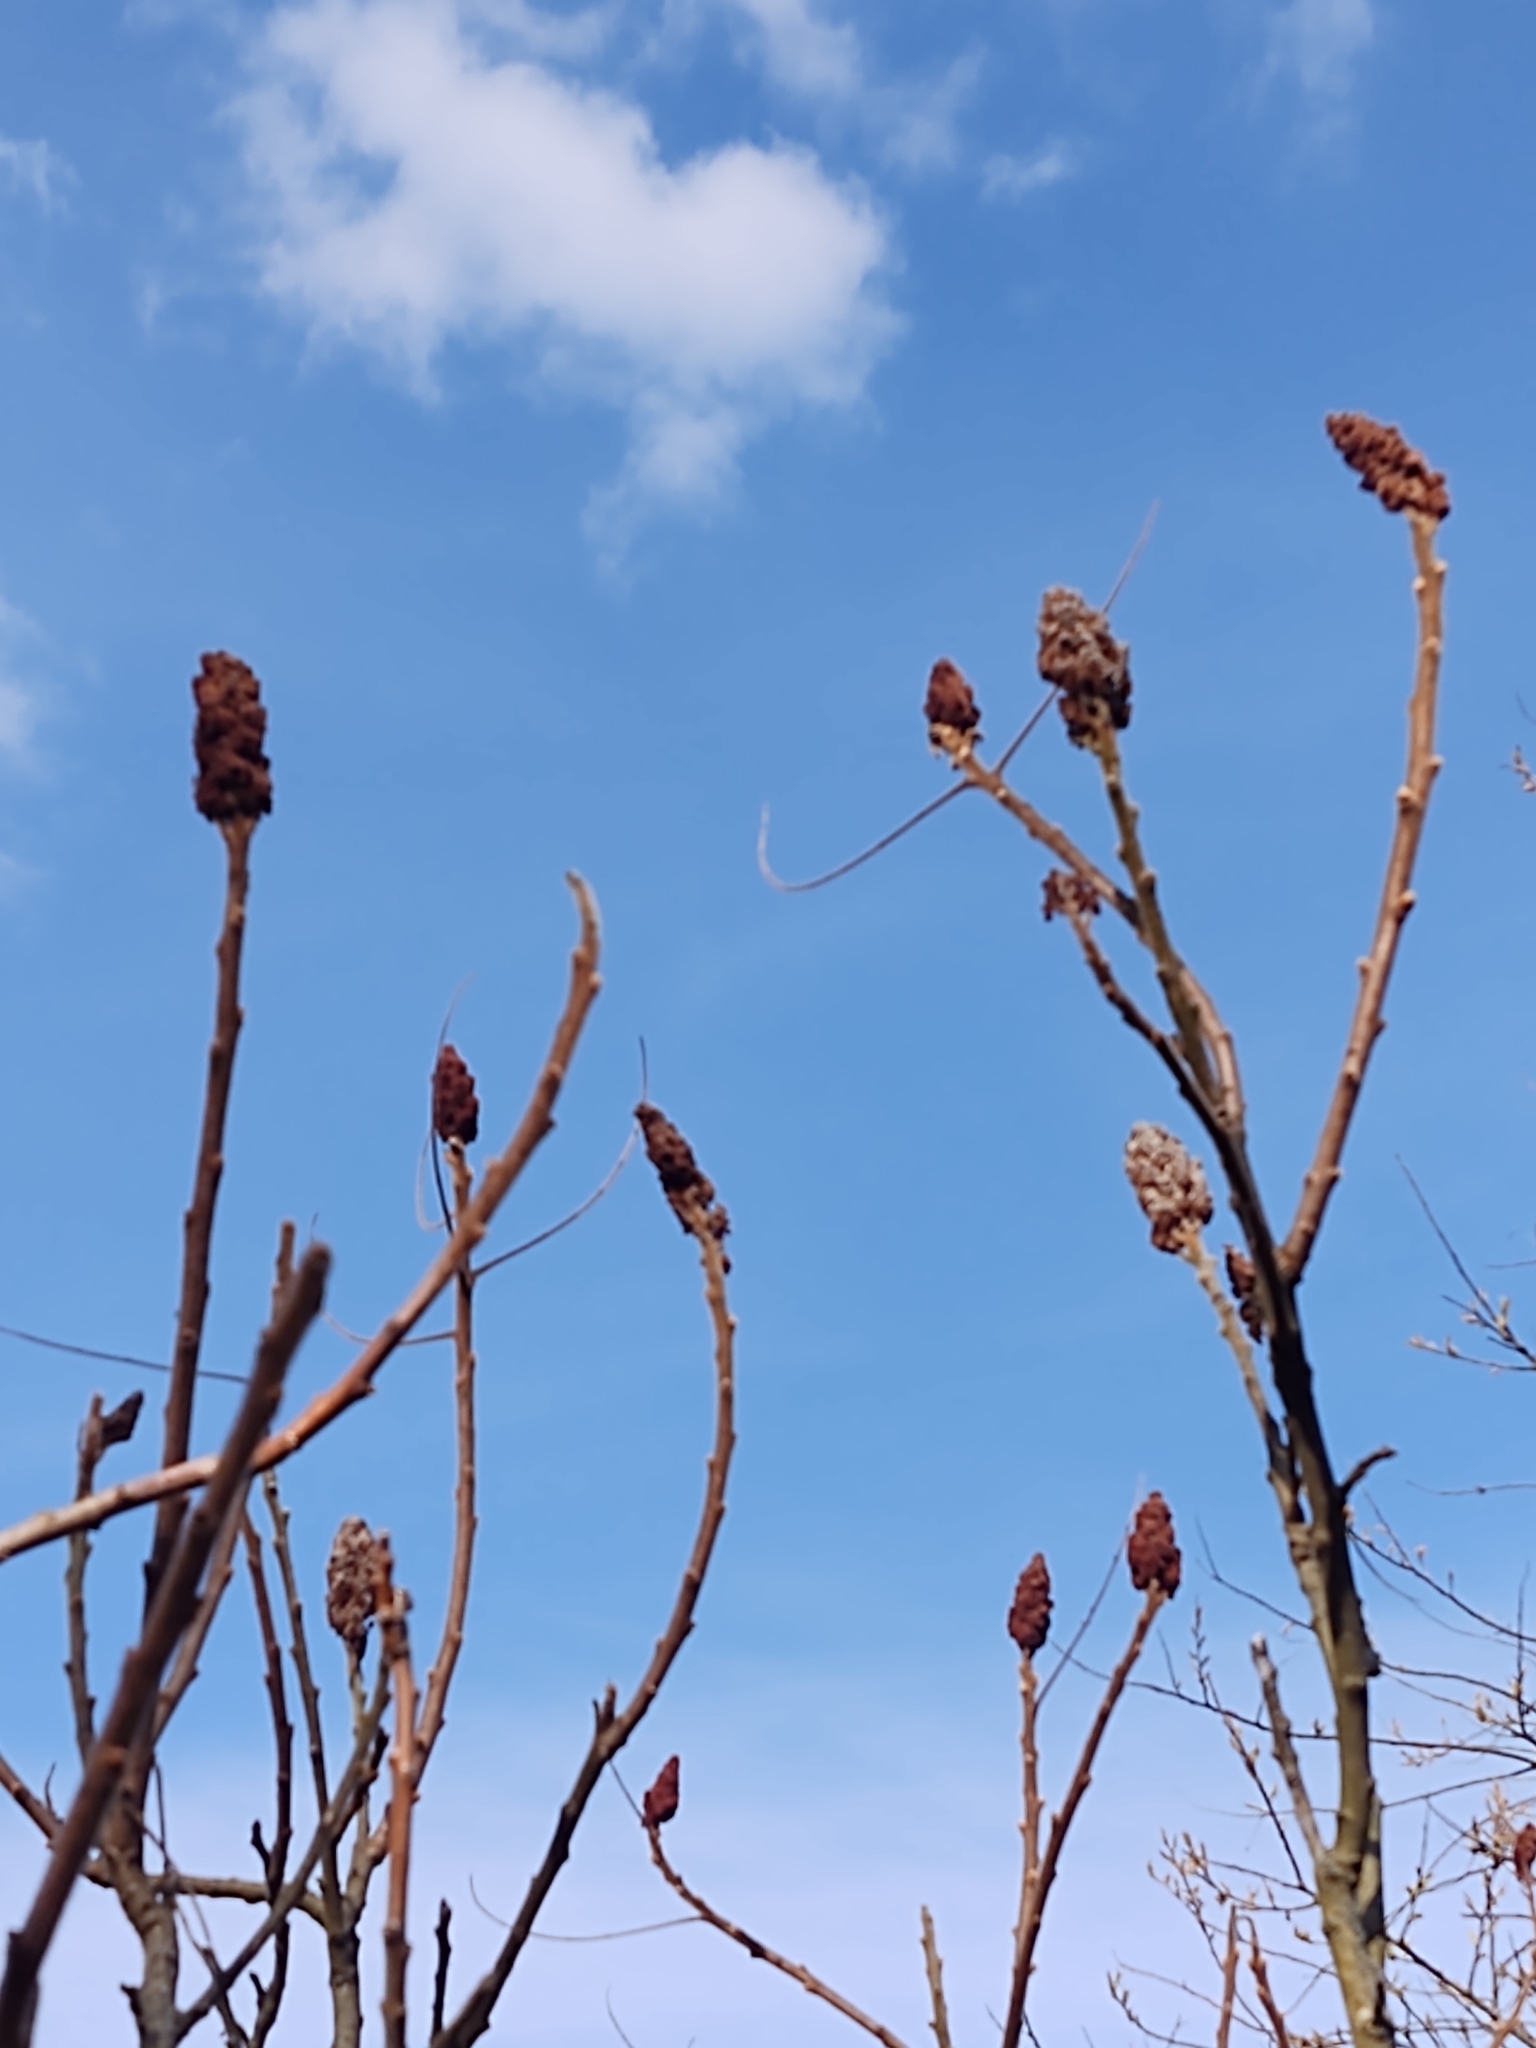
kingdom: Plantae
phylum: Tracheophyta
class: Magnoliopsida
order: Sapindales
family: Anacardiaceae
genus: Rhus
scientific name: Rhus typhina
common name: Staghorn sumac
